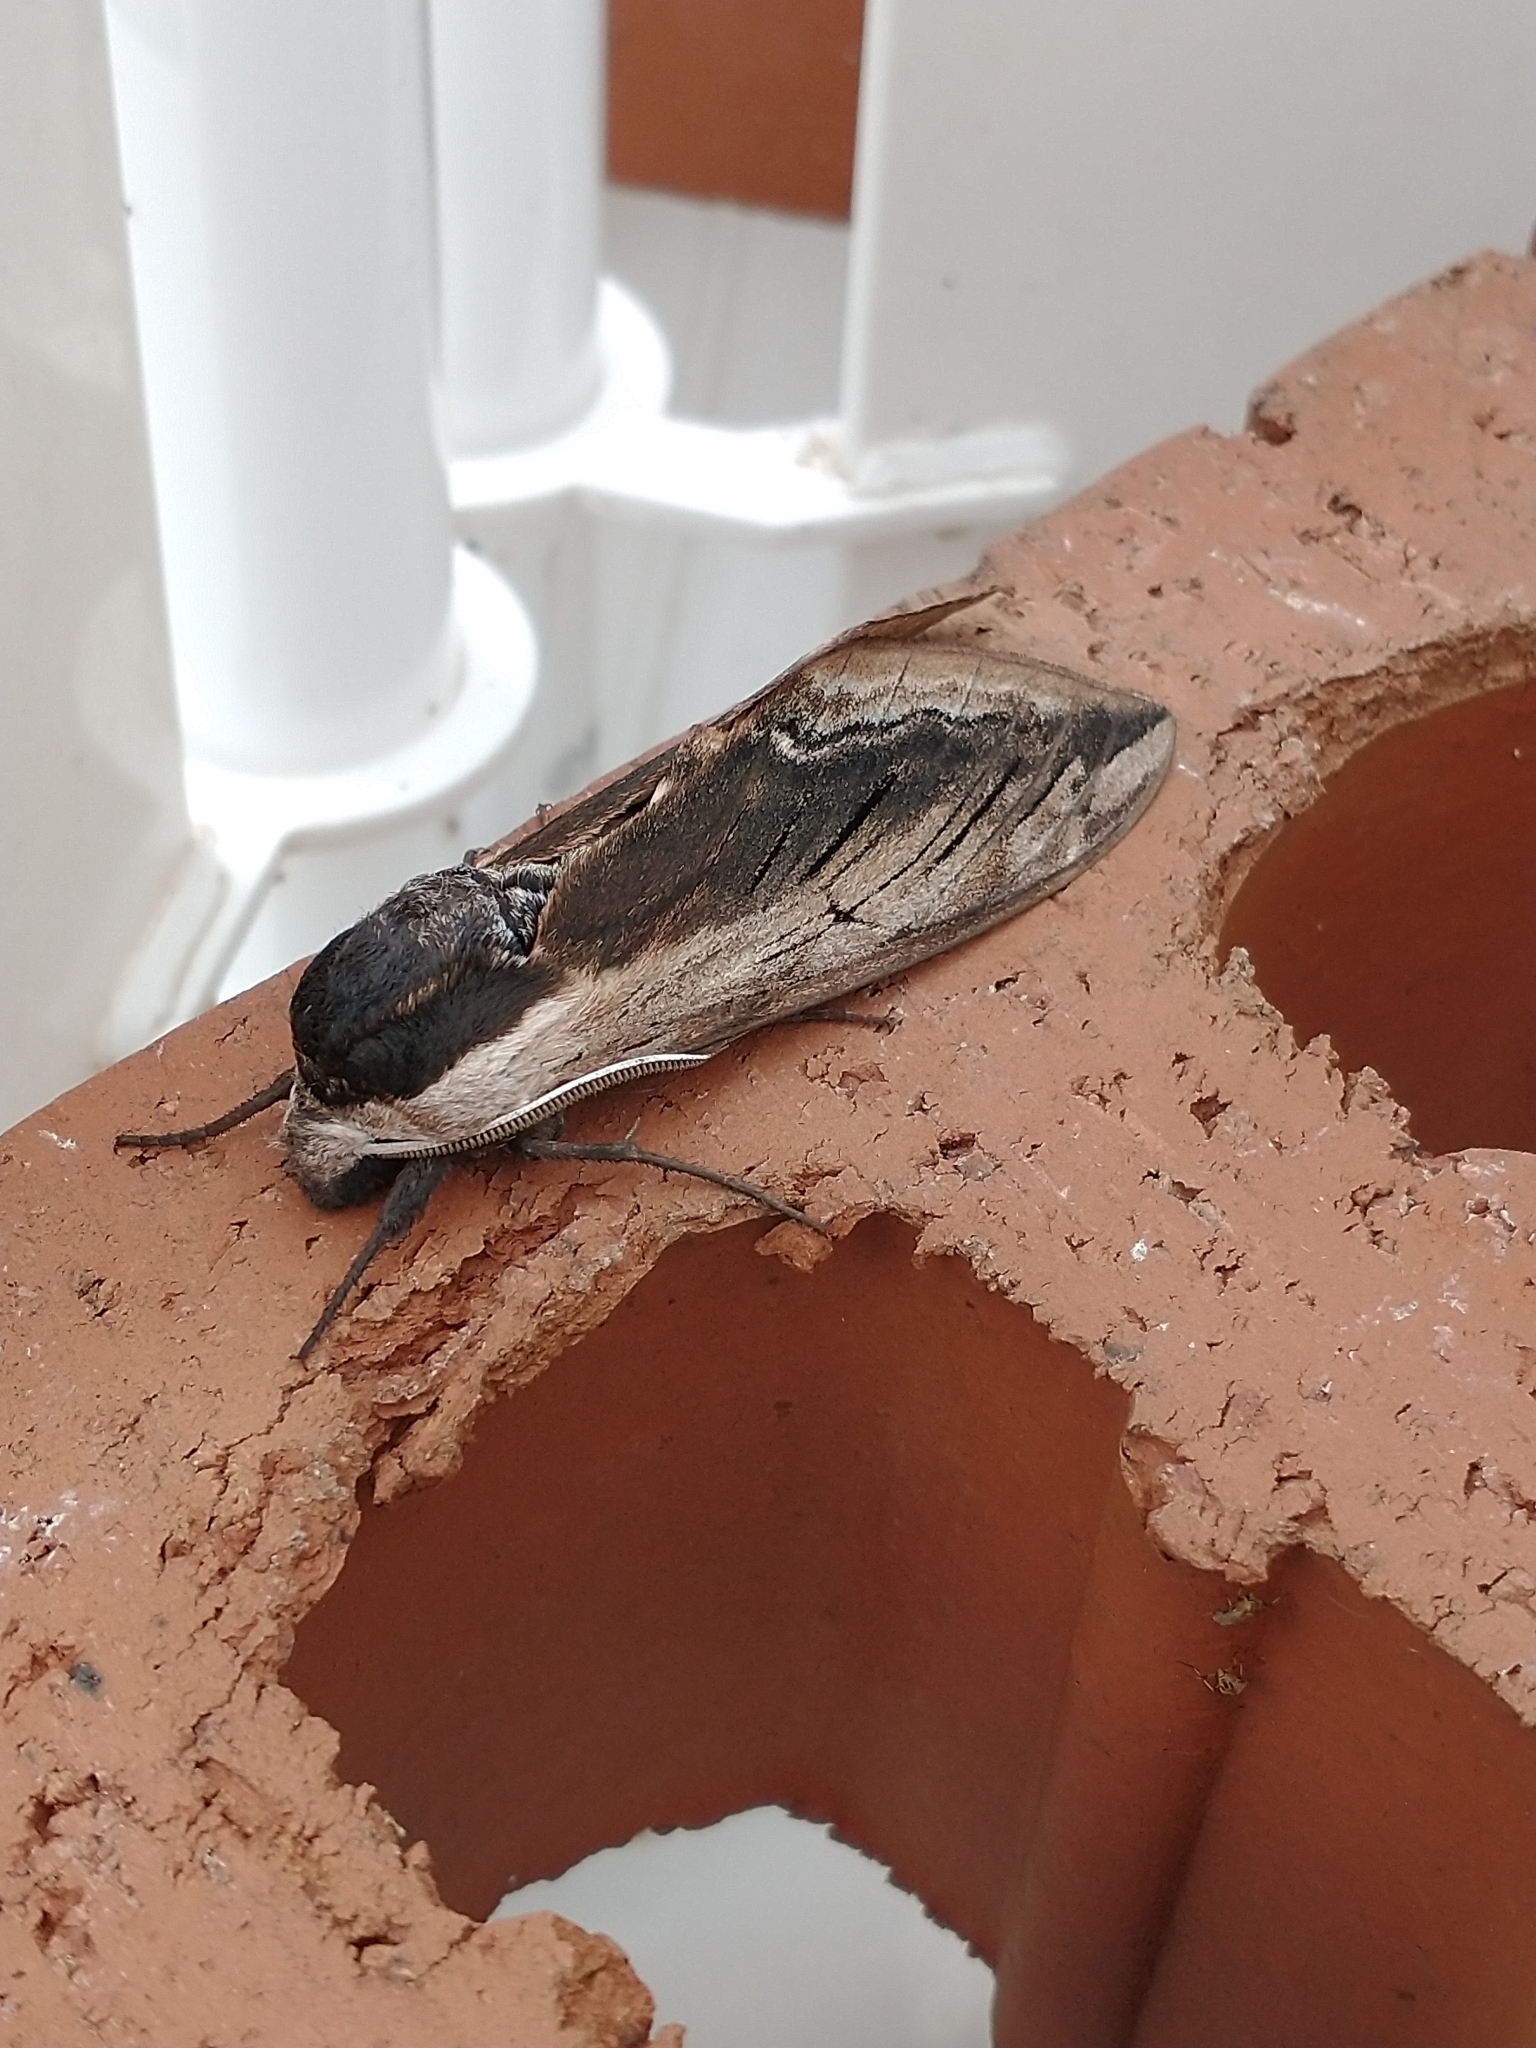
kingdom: Animalia
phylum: Arthropoda
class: Insecta
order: Lepidoptera
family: Sphingidae
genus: Sphinx
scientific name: Sphinx ligustri
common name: Privet hawk-moth
